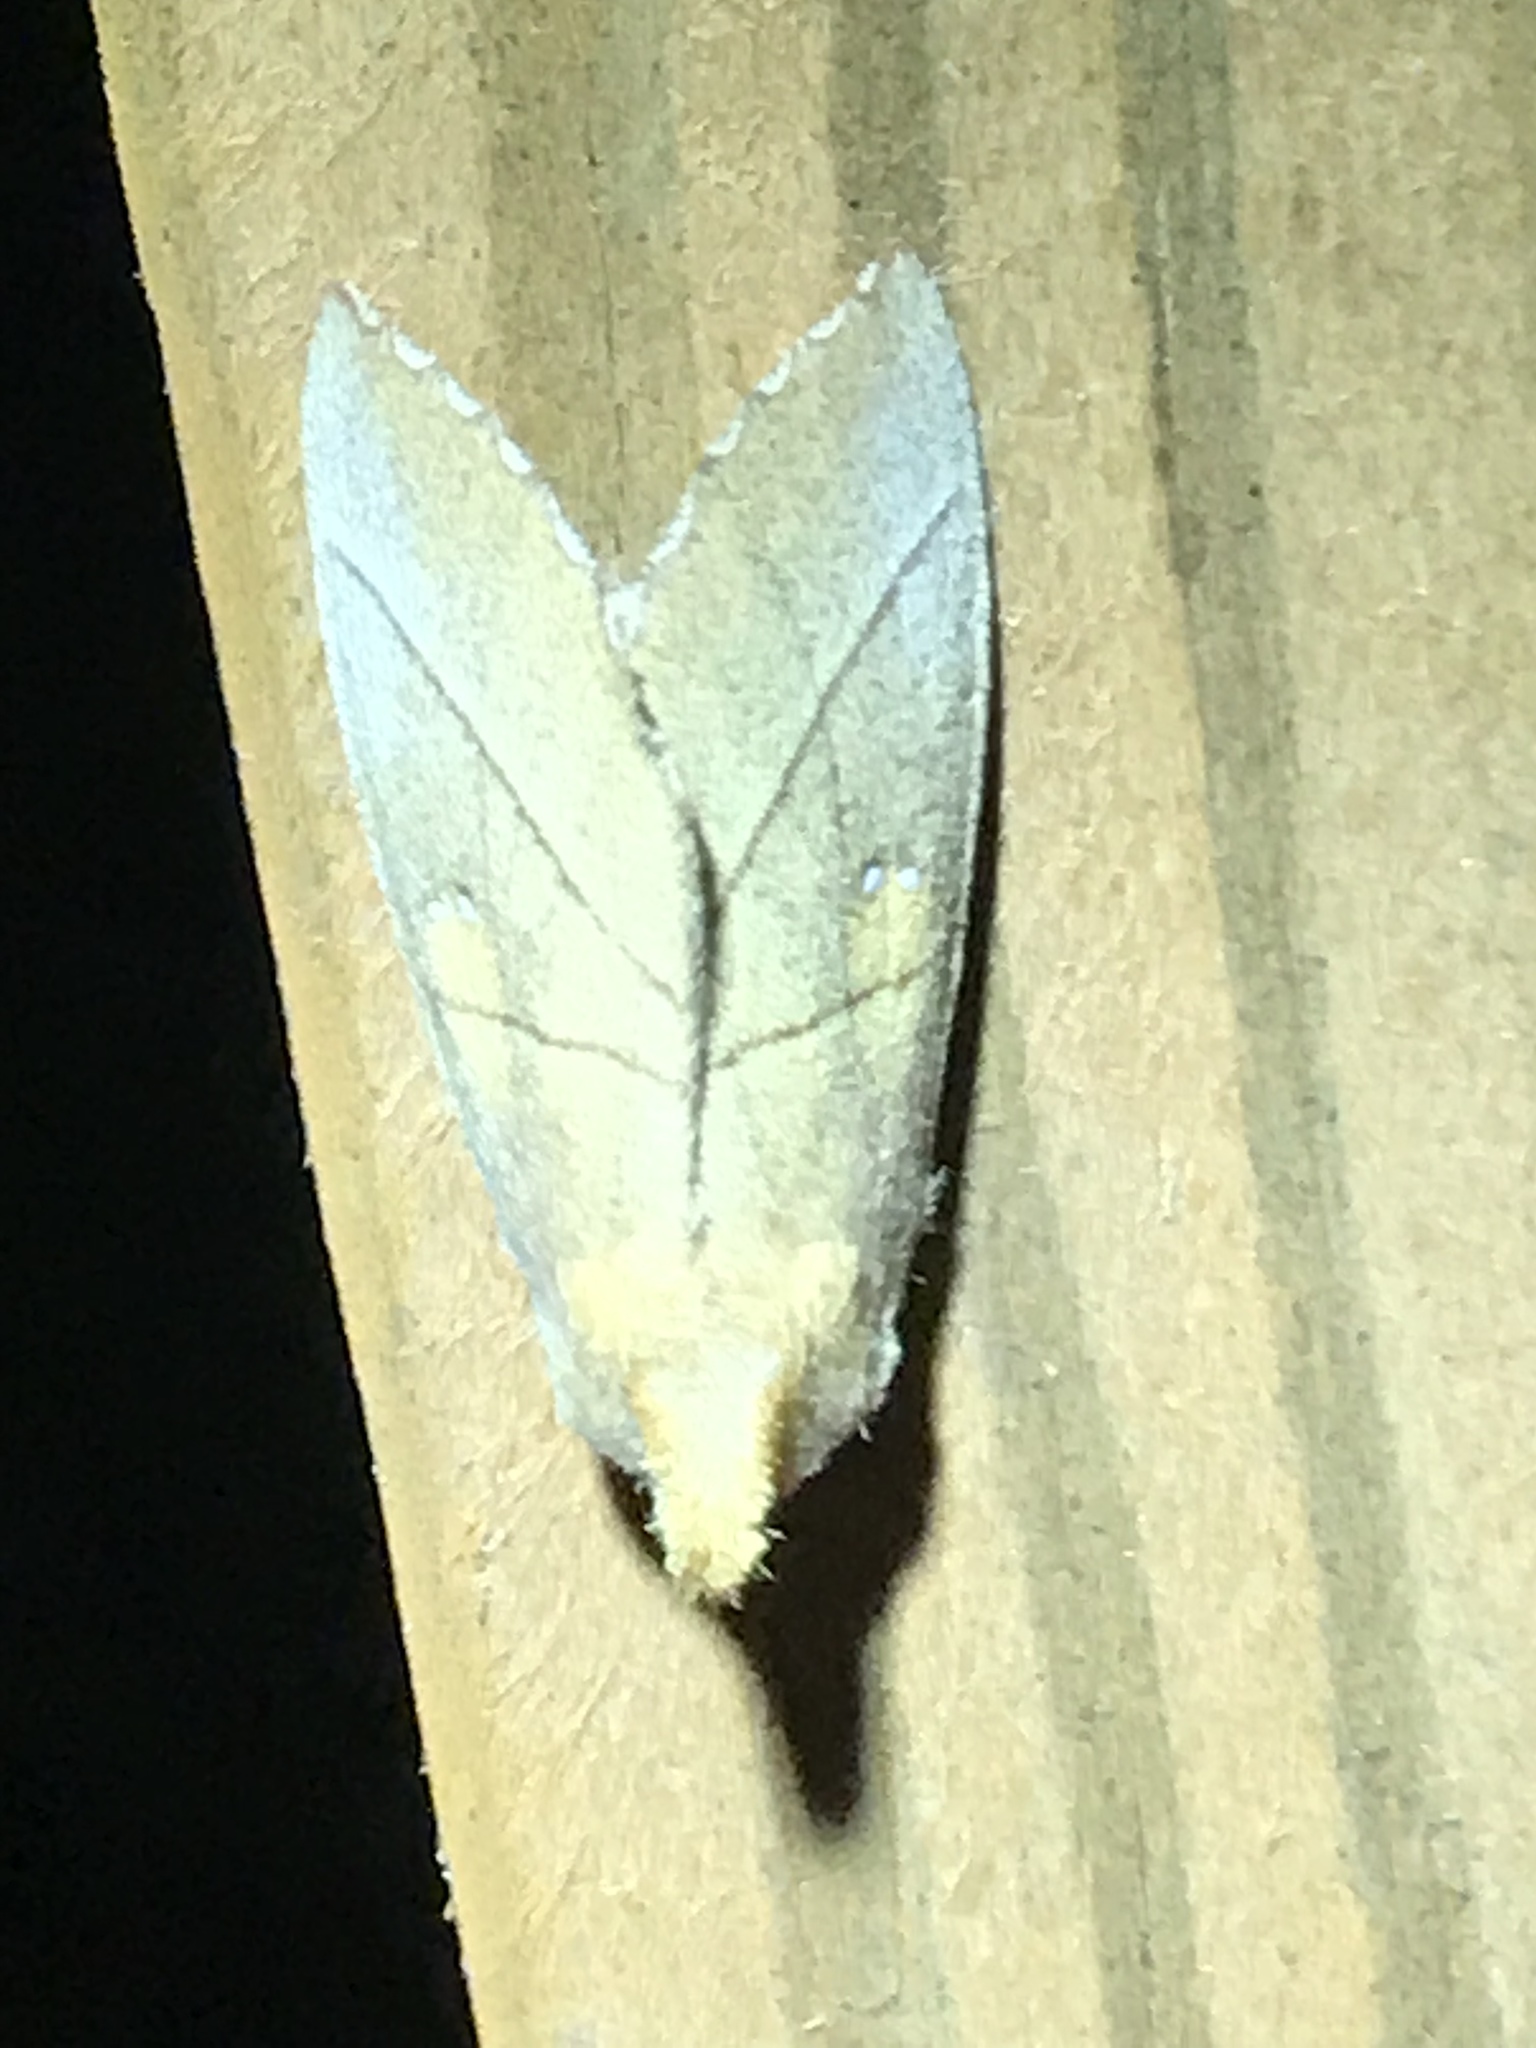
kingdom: Animalia
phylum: Arthropoda
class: Insecta
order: Lepidoptera
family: Notodontidae
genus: Nadata
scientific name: Nadata gibbosa
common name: White-dotted prominent
